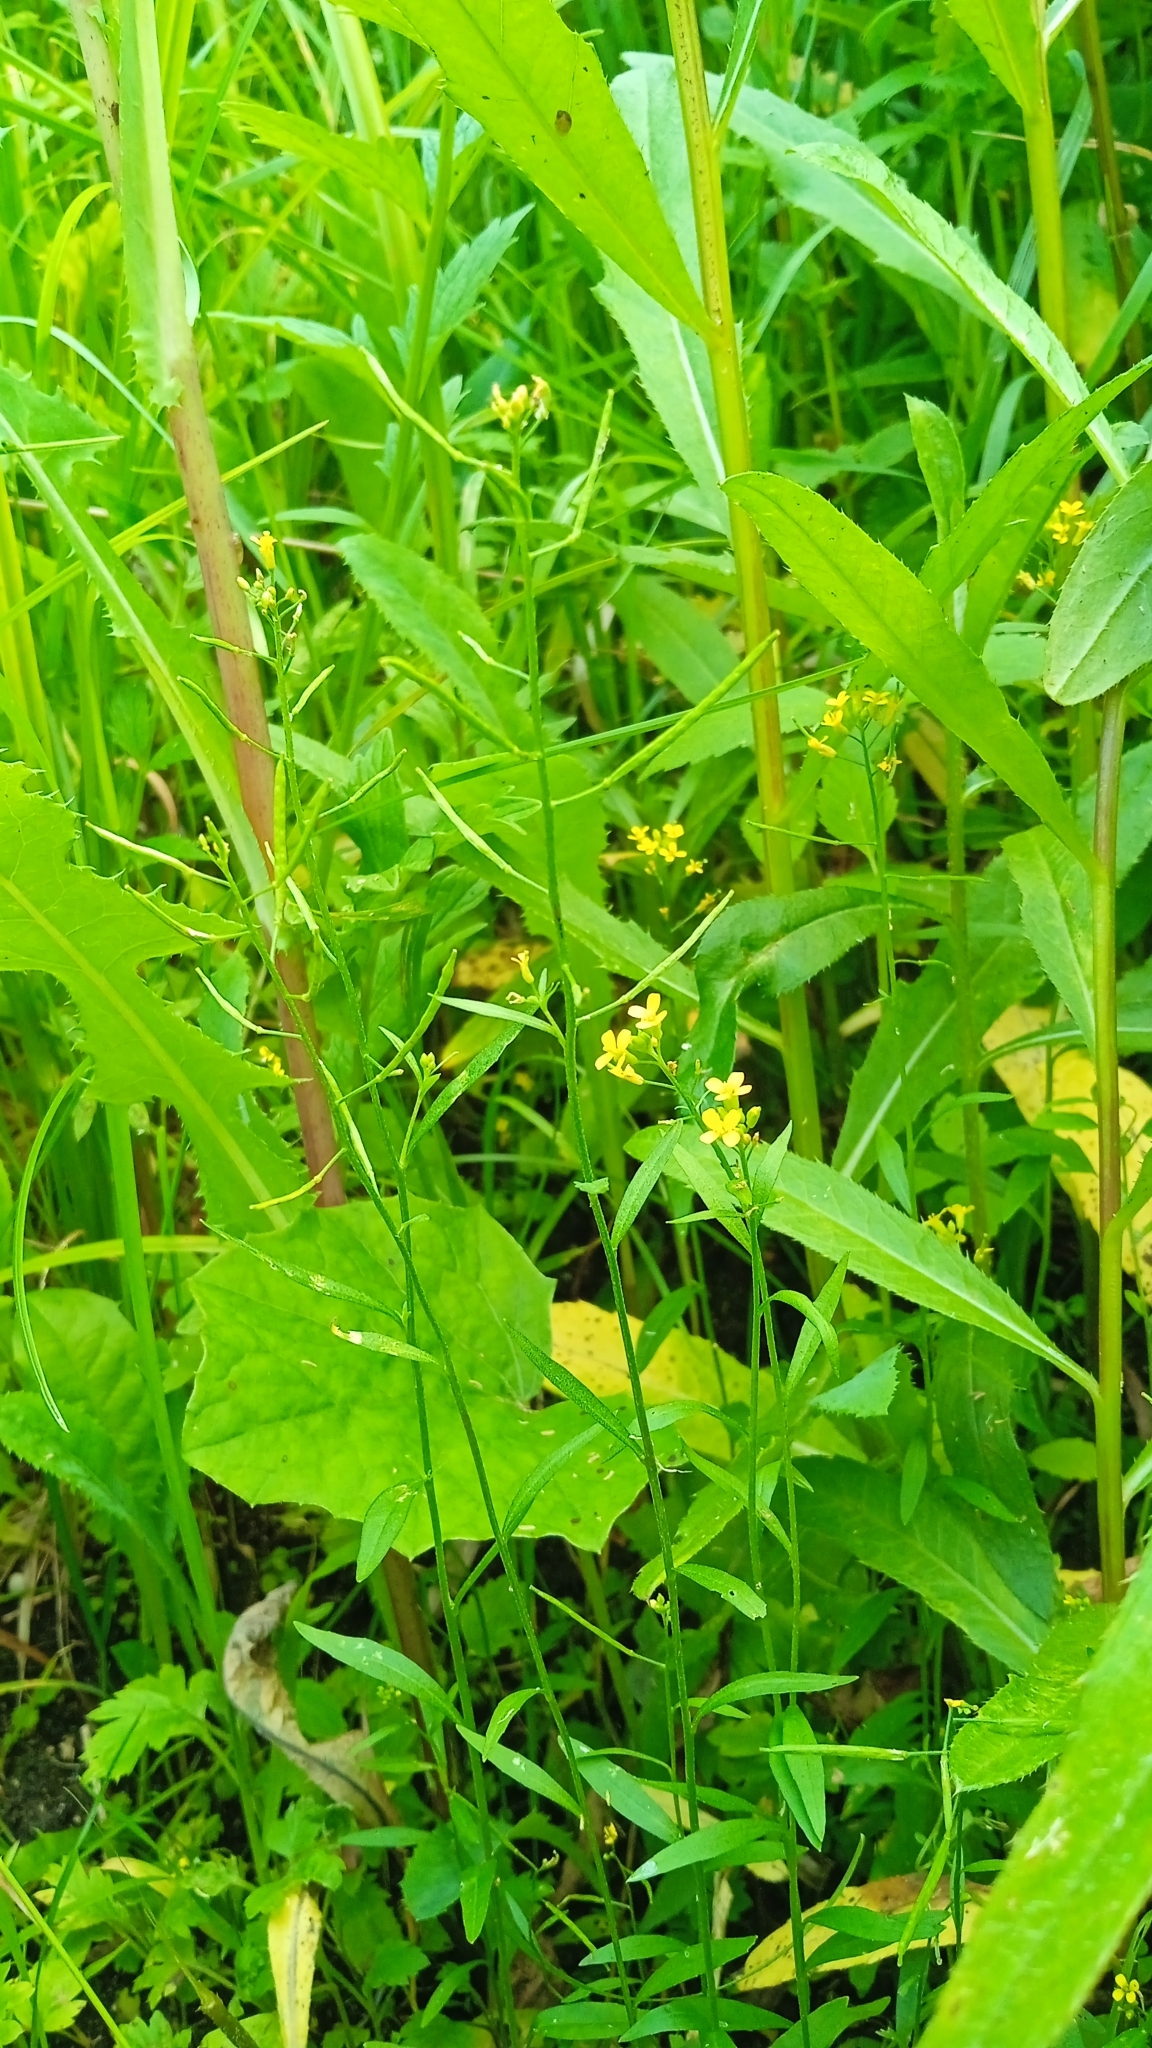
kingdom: Plantae
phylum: Tracheophyta
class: Magnoliopsida
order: Brassicales
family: Brassicaceae
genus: Erysimum
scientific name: Erysimum cheiranthoides
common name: Treacle mustard
